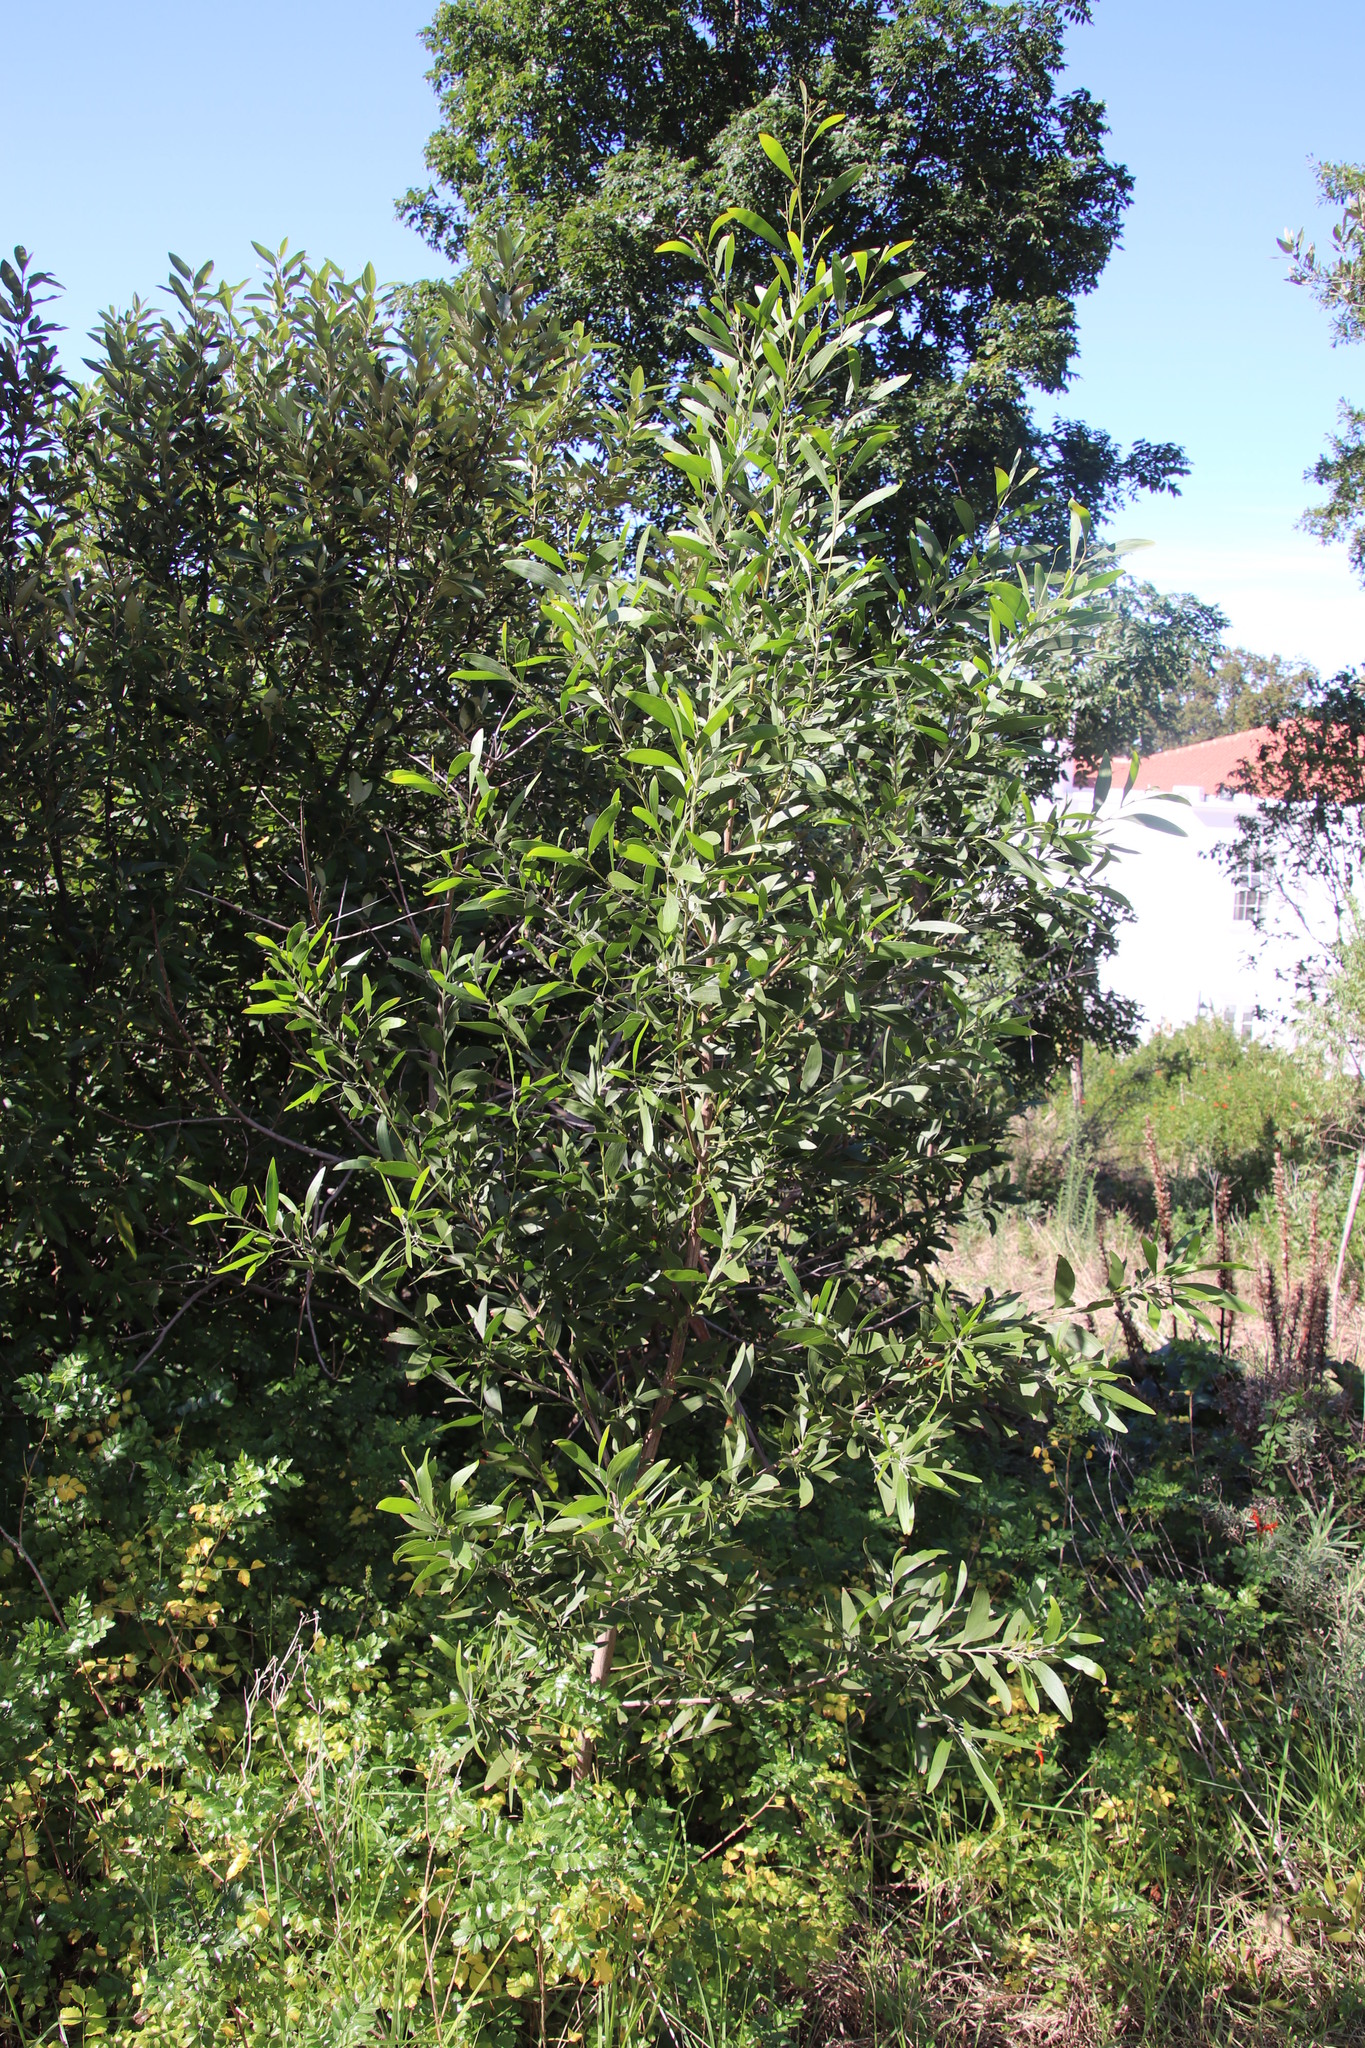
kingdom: Plantae
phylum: Tracheophyta
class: Magnoliopsida
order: Fabales
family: Fabaceae
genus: Acacia
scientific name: Acacia melanoxylon
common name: Blackwood
